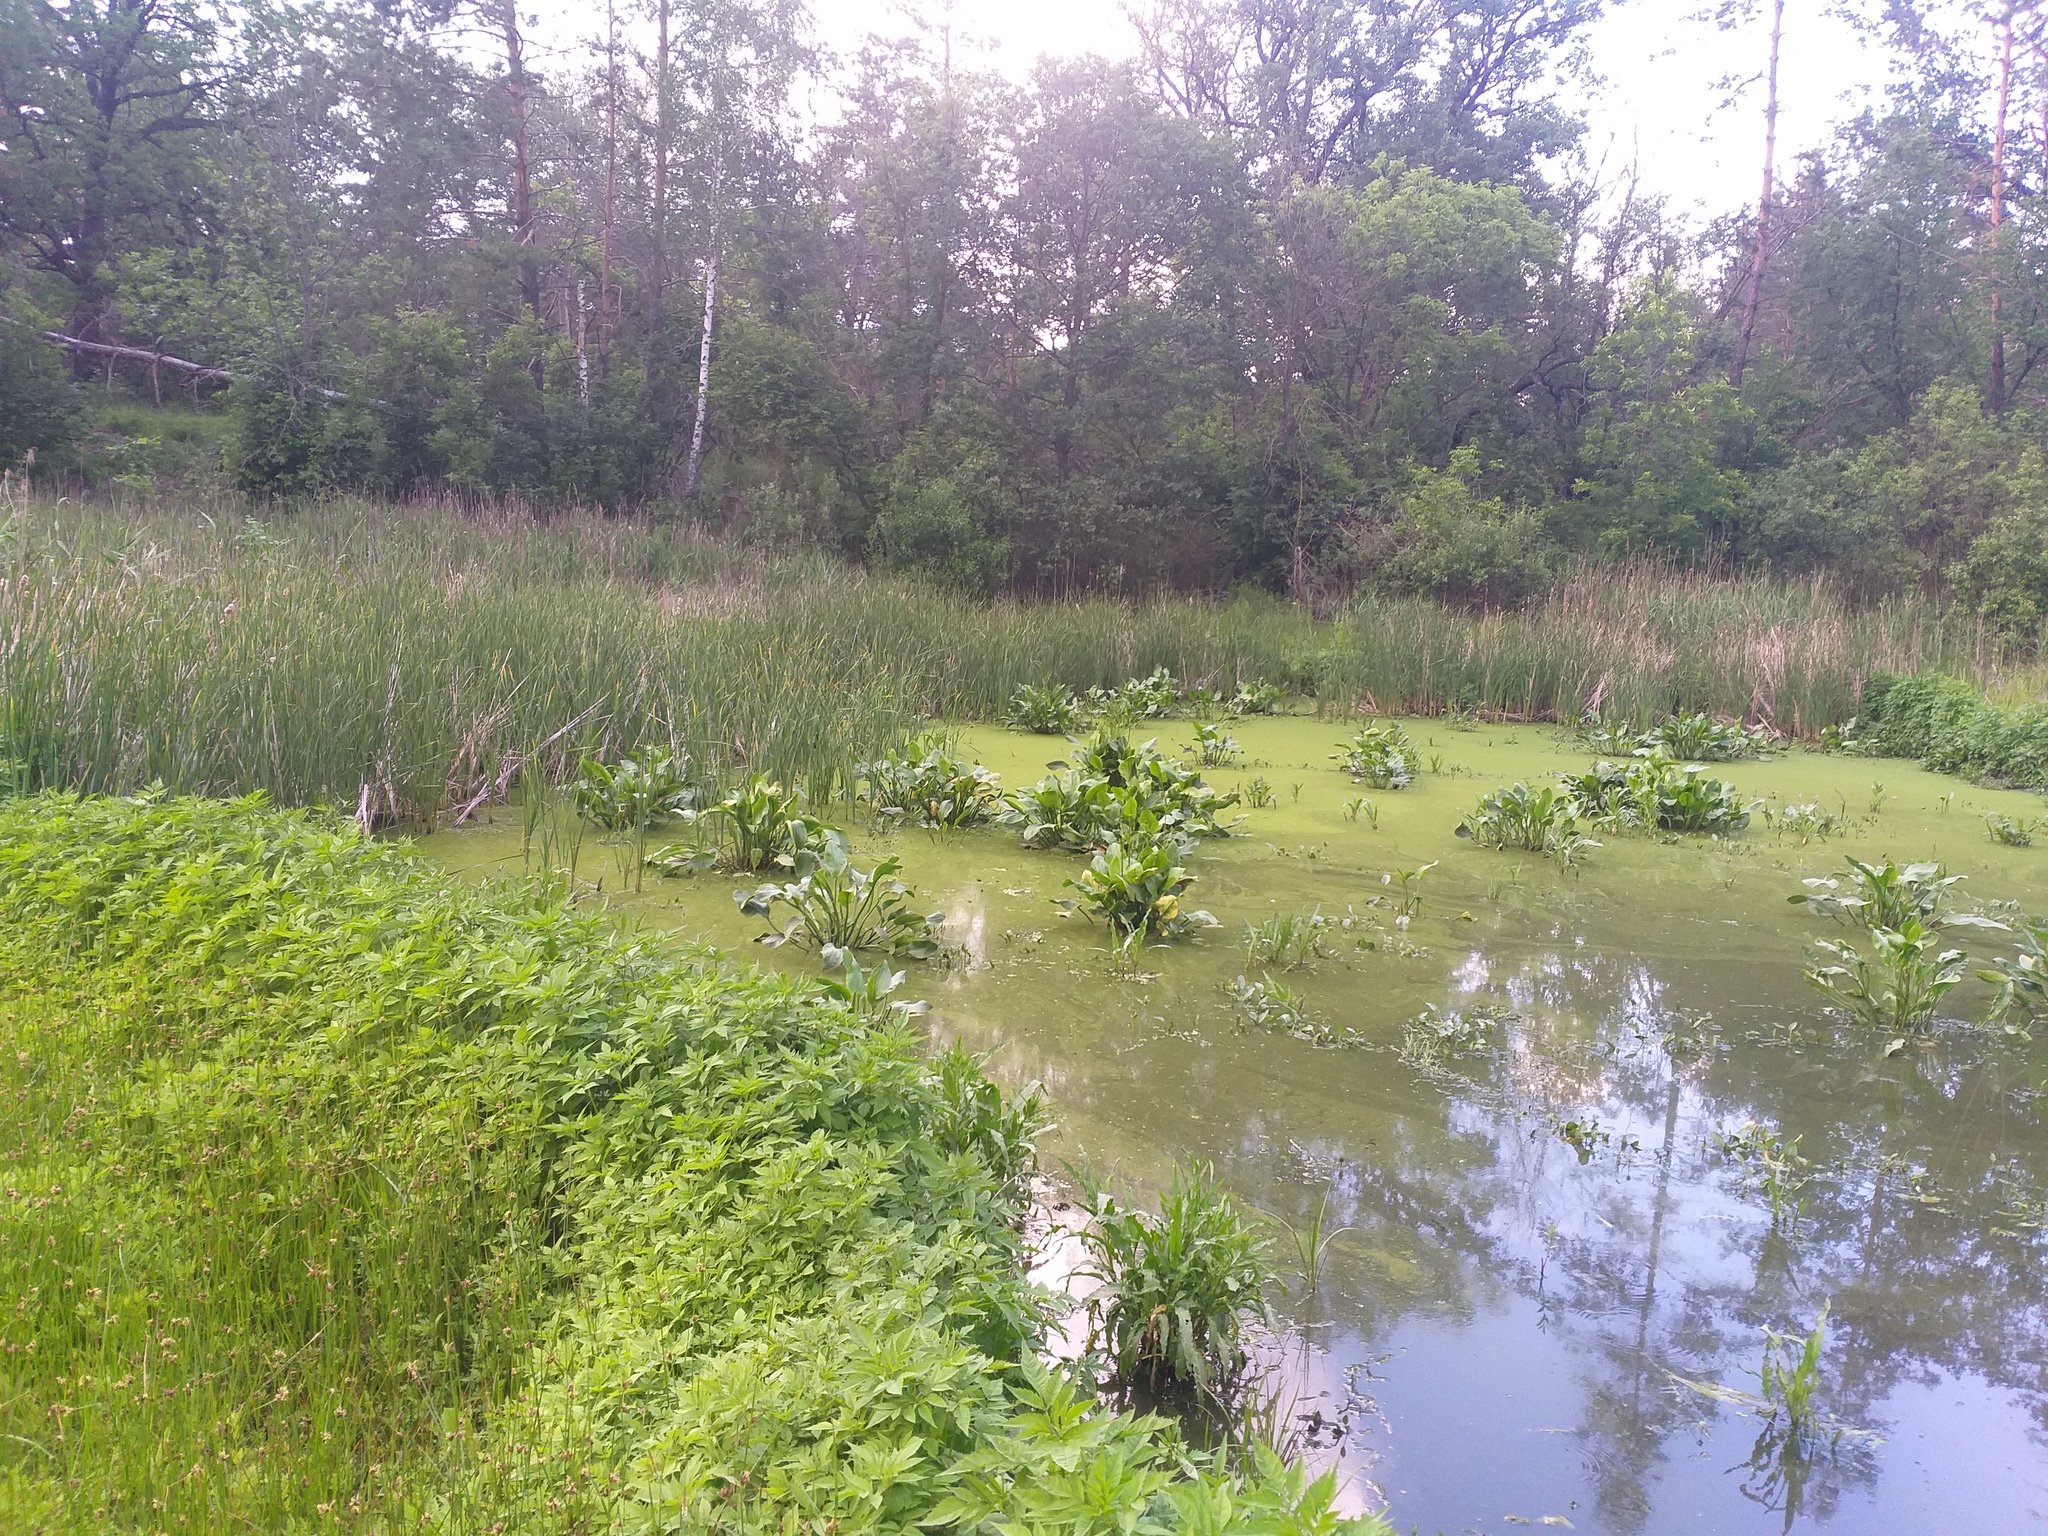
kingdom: Plantae
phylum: Tracheophyta
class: Liliopsida
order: Alismatales
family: Alismataceae
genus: Alisma
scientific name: Alisma plantago-aquatica
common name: Water-plantain
